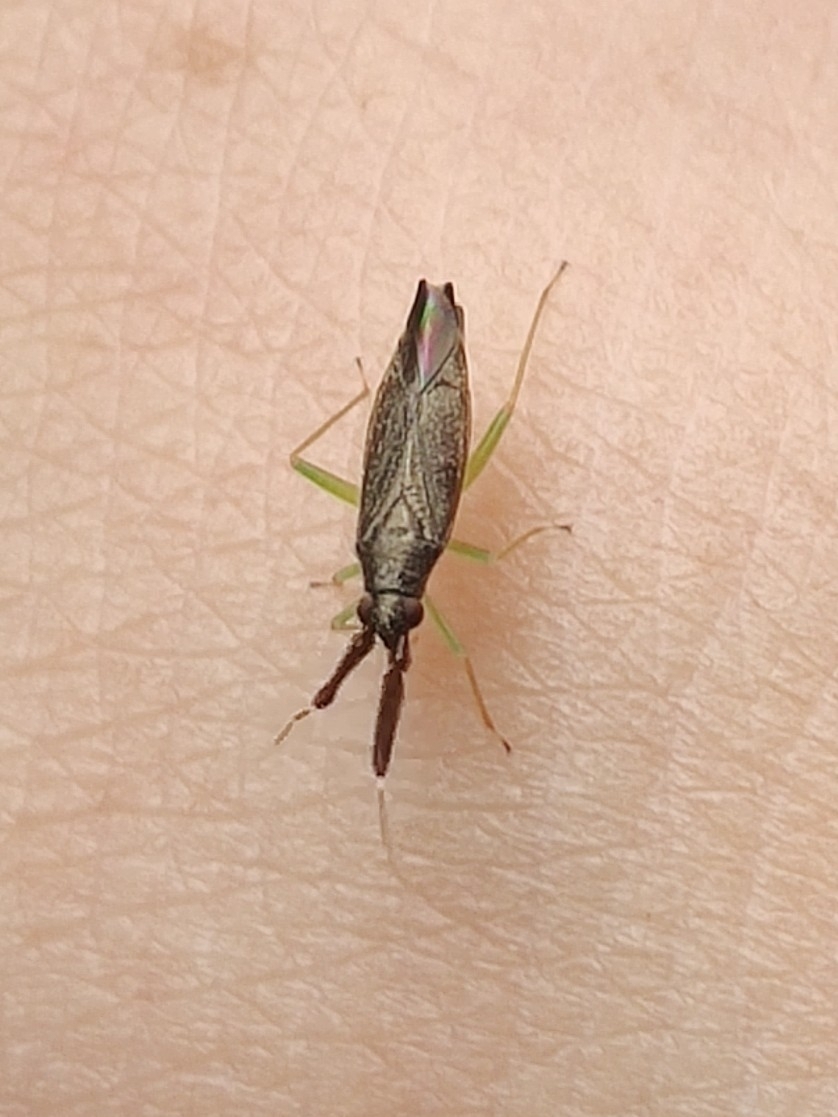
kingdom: Animalia
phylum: Arthropoda
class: Insecta
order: Hemiptera
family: Miridae
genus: Heterotoma
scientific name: Heterotoma planicornis
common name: Plant bug
